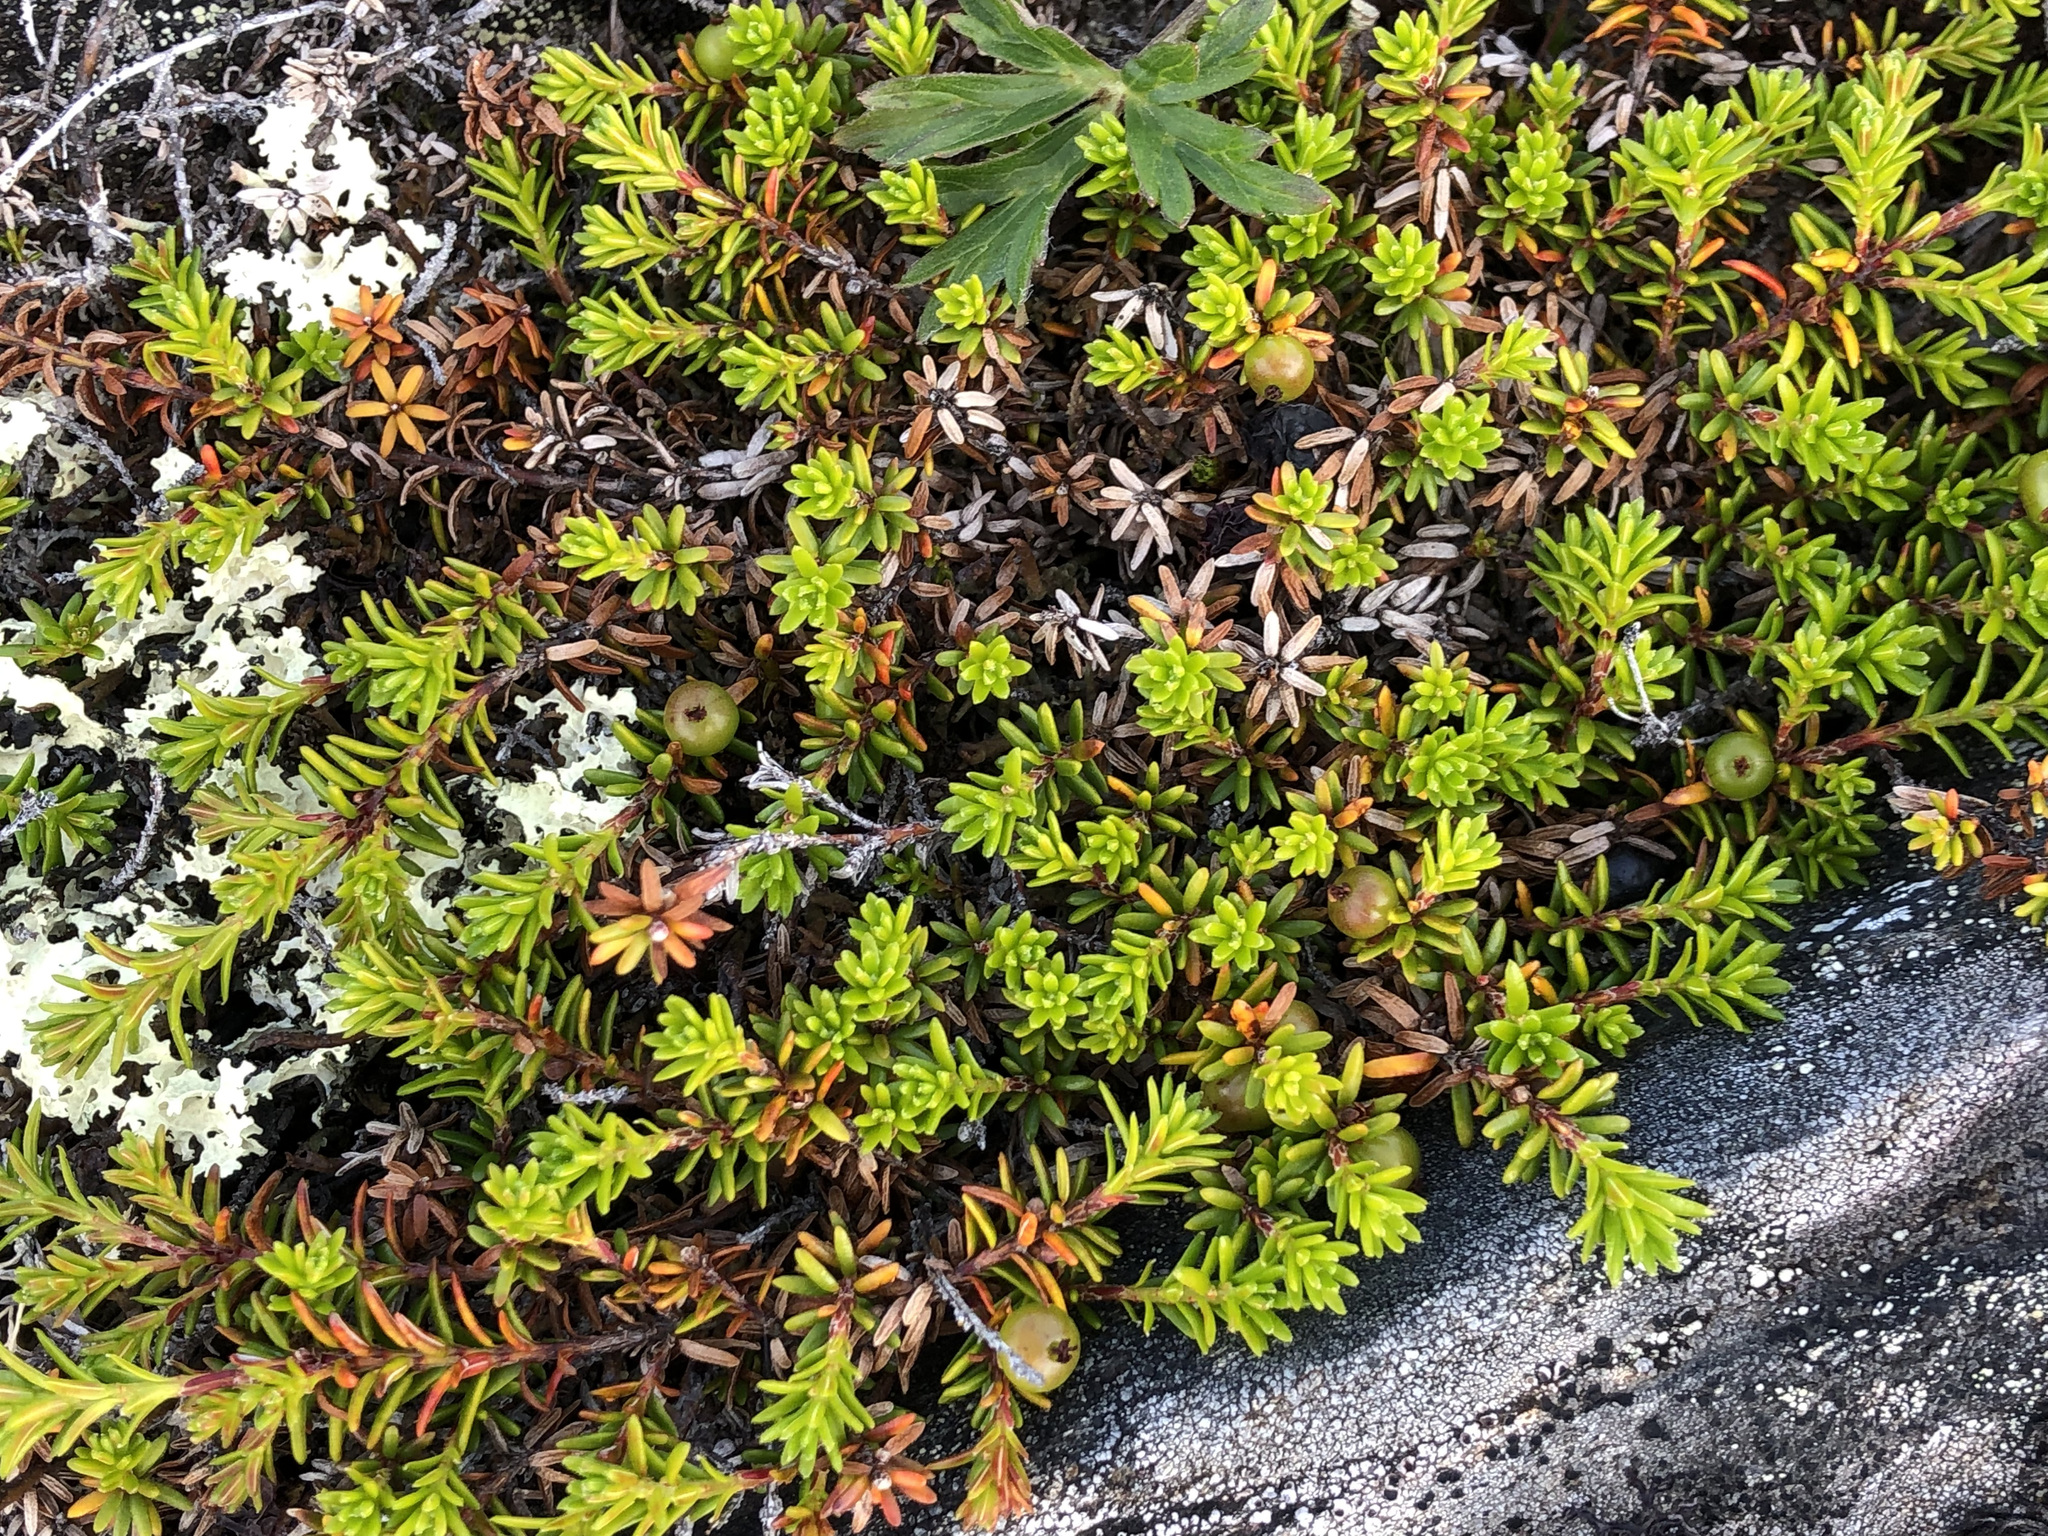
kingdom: Plantae
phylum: Tracheophyta
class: Magnoliopsida
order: Ericales
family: Ericaceae
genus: Empetrum
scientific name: Empetrum nigrum
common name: Black crowberry
